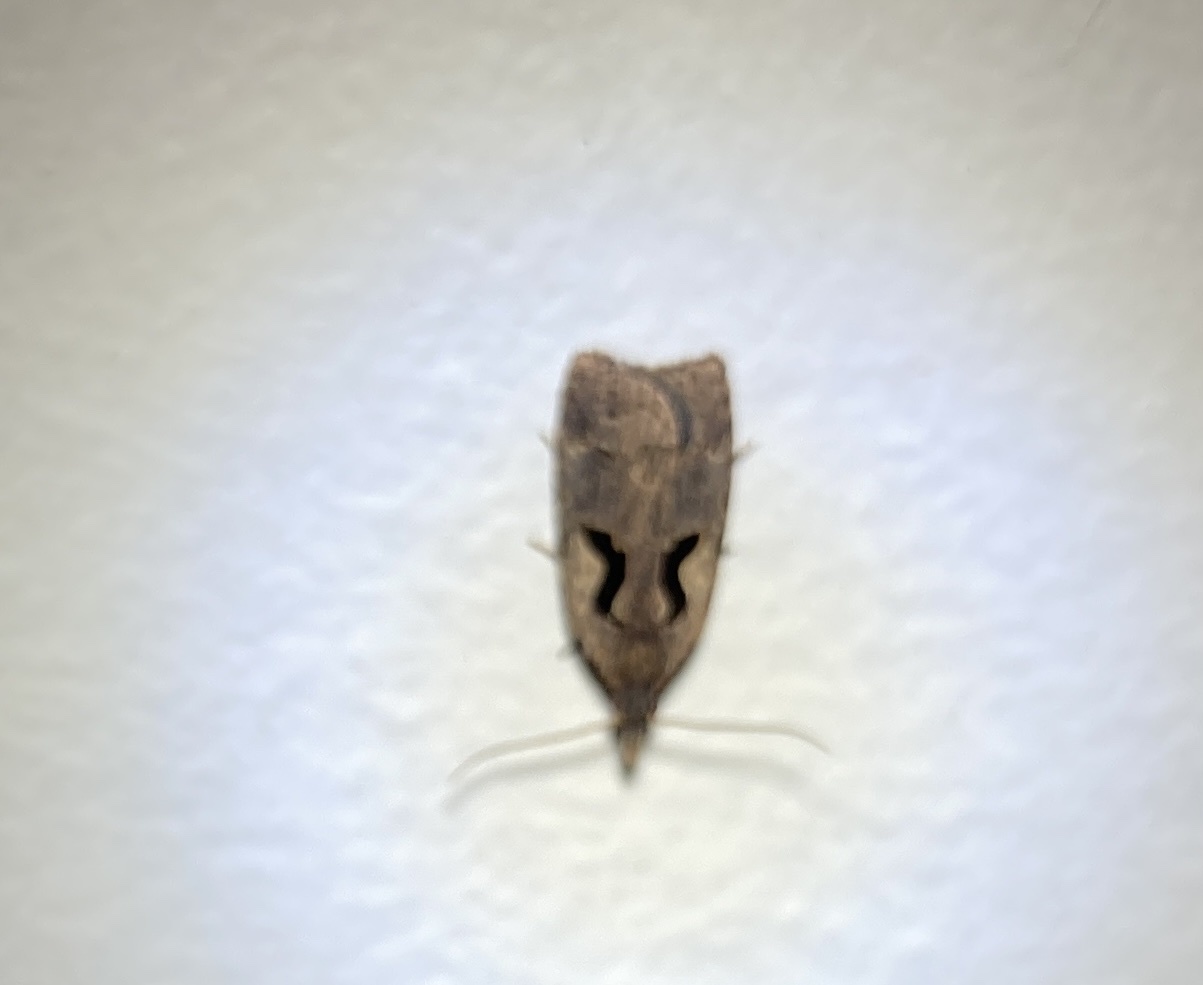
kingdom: Animalia
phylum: Arthropoda
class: Insecta
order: Lepidoptera
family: Tortricidae
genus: Cnephasia
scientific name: Cnephasia jactatana
